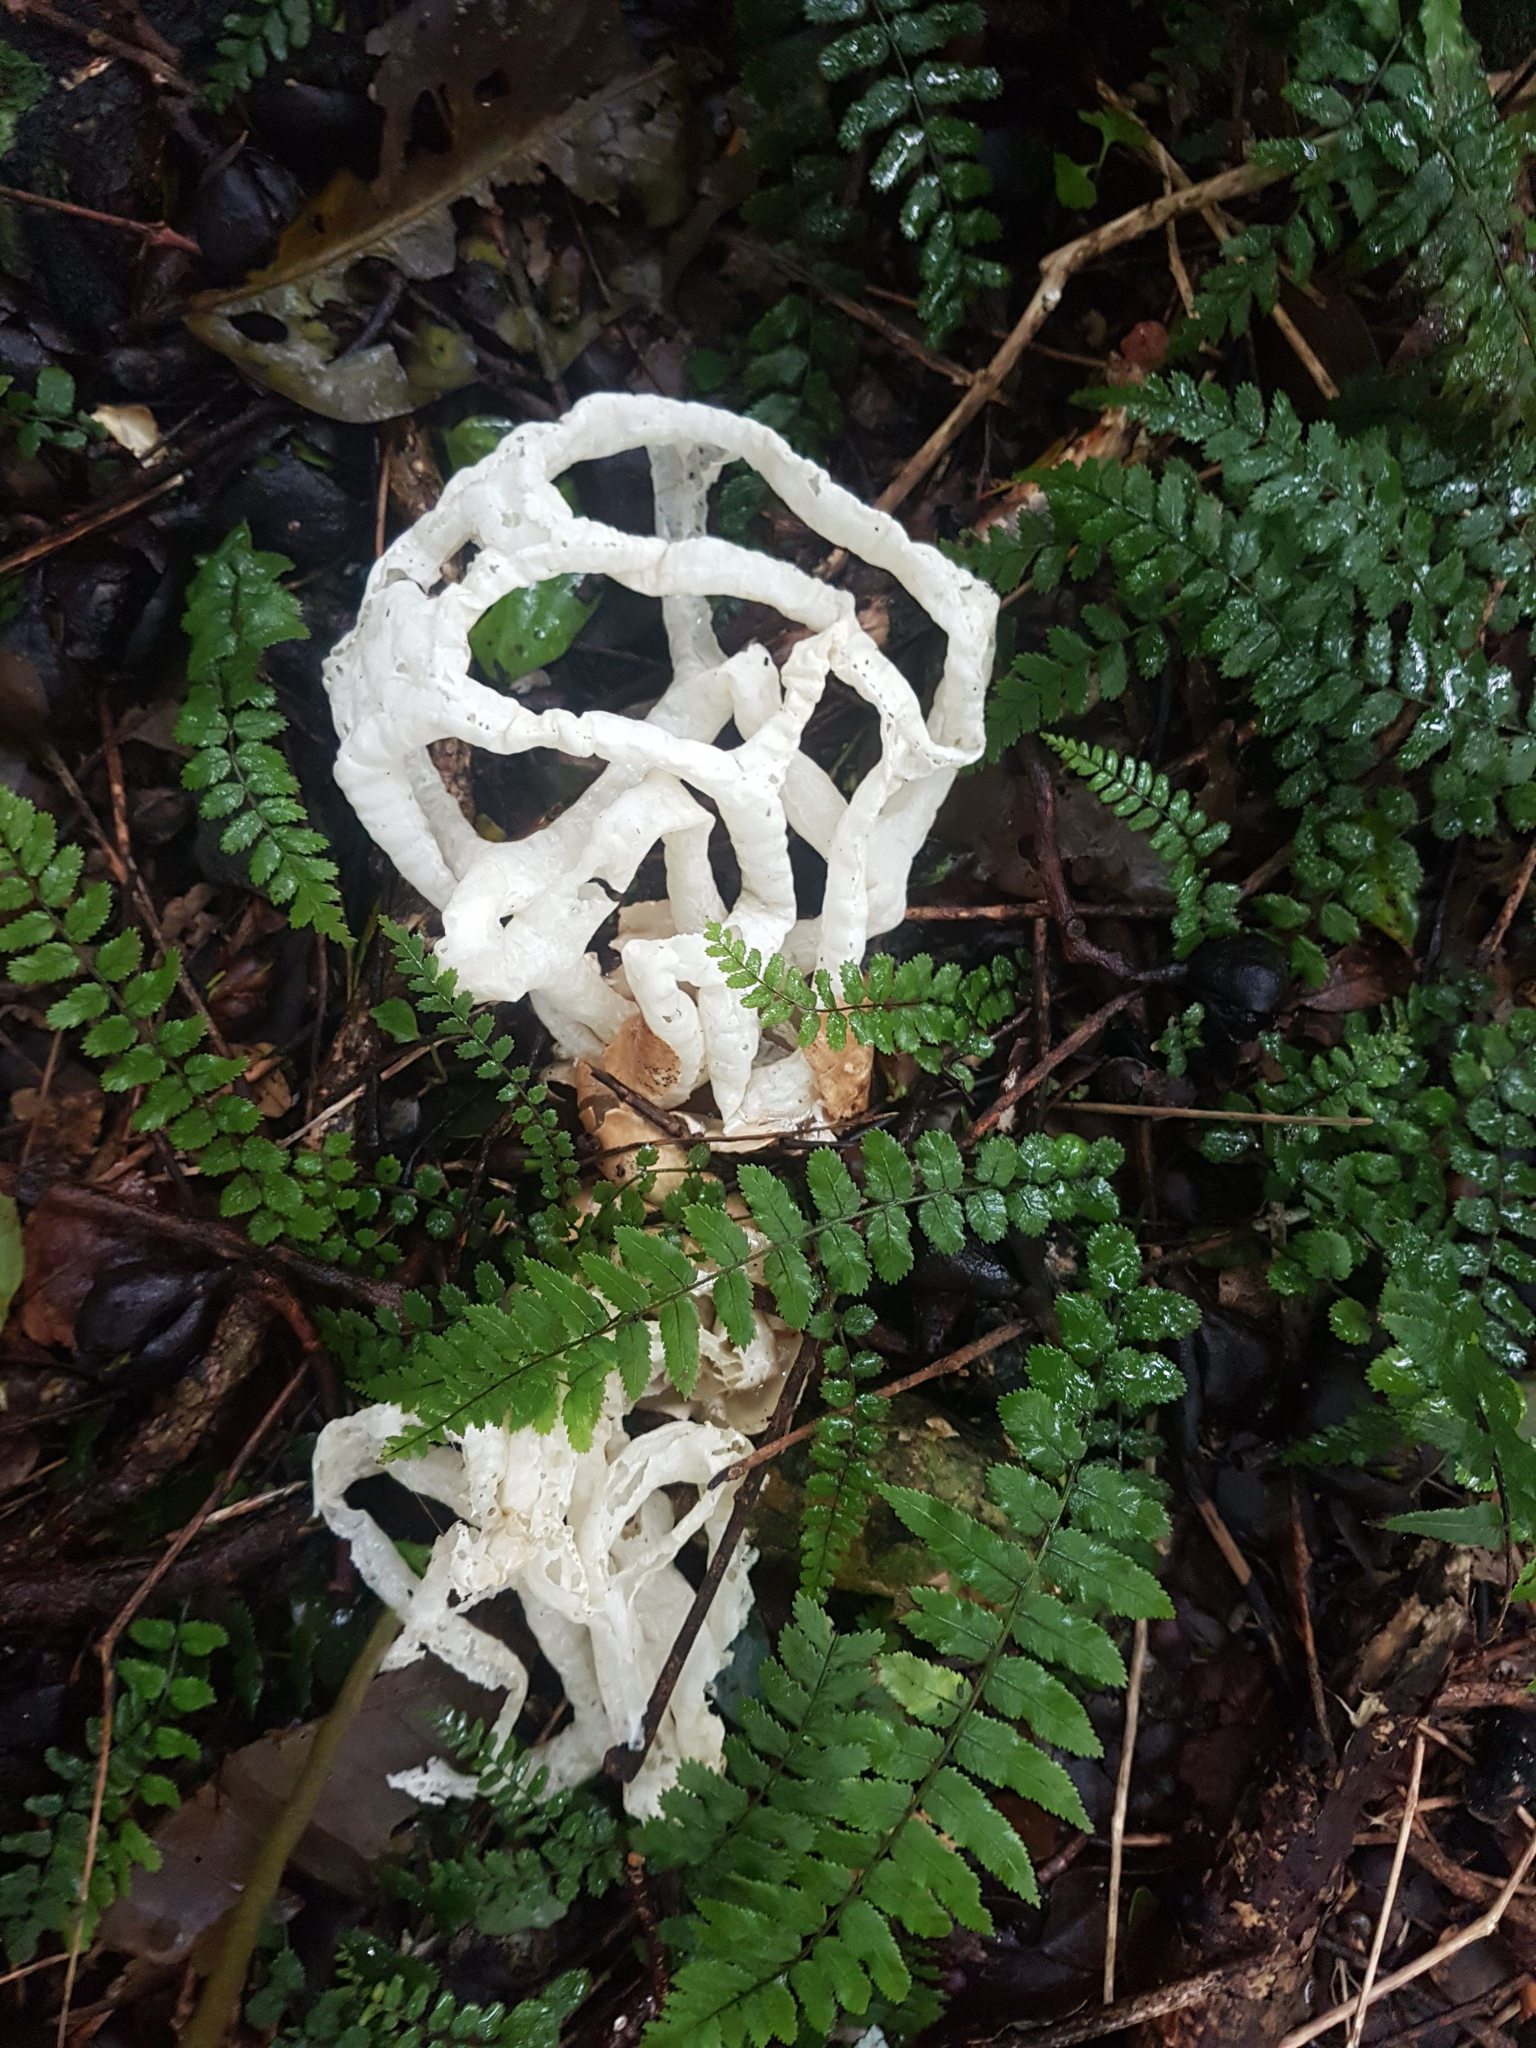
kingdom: Fungi
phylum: Basidiomycota
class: Agaricomycetes
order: Phallales
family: Phallaceae
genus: Ileodictyon
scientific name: Ileodictyon cibarium
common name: Basket fungus
